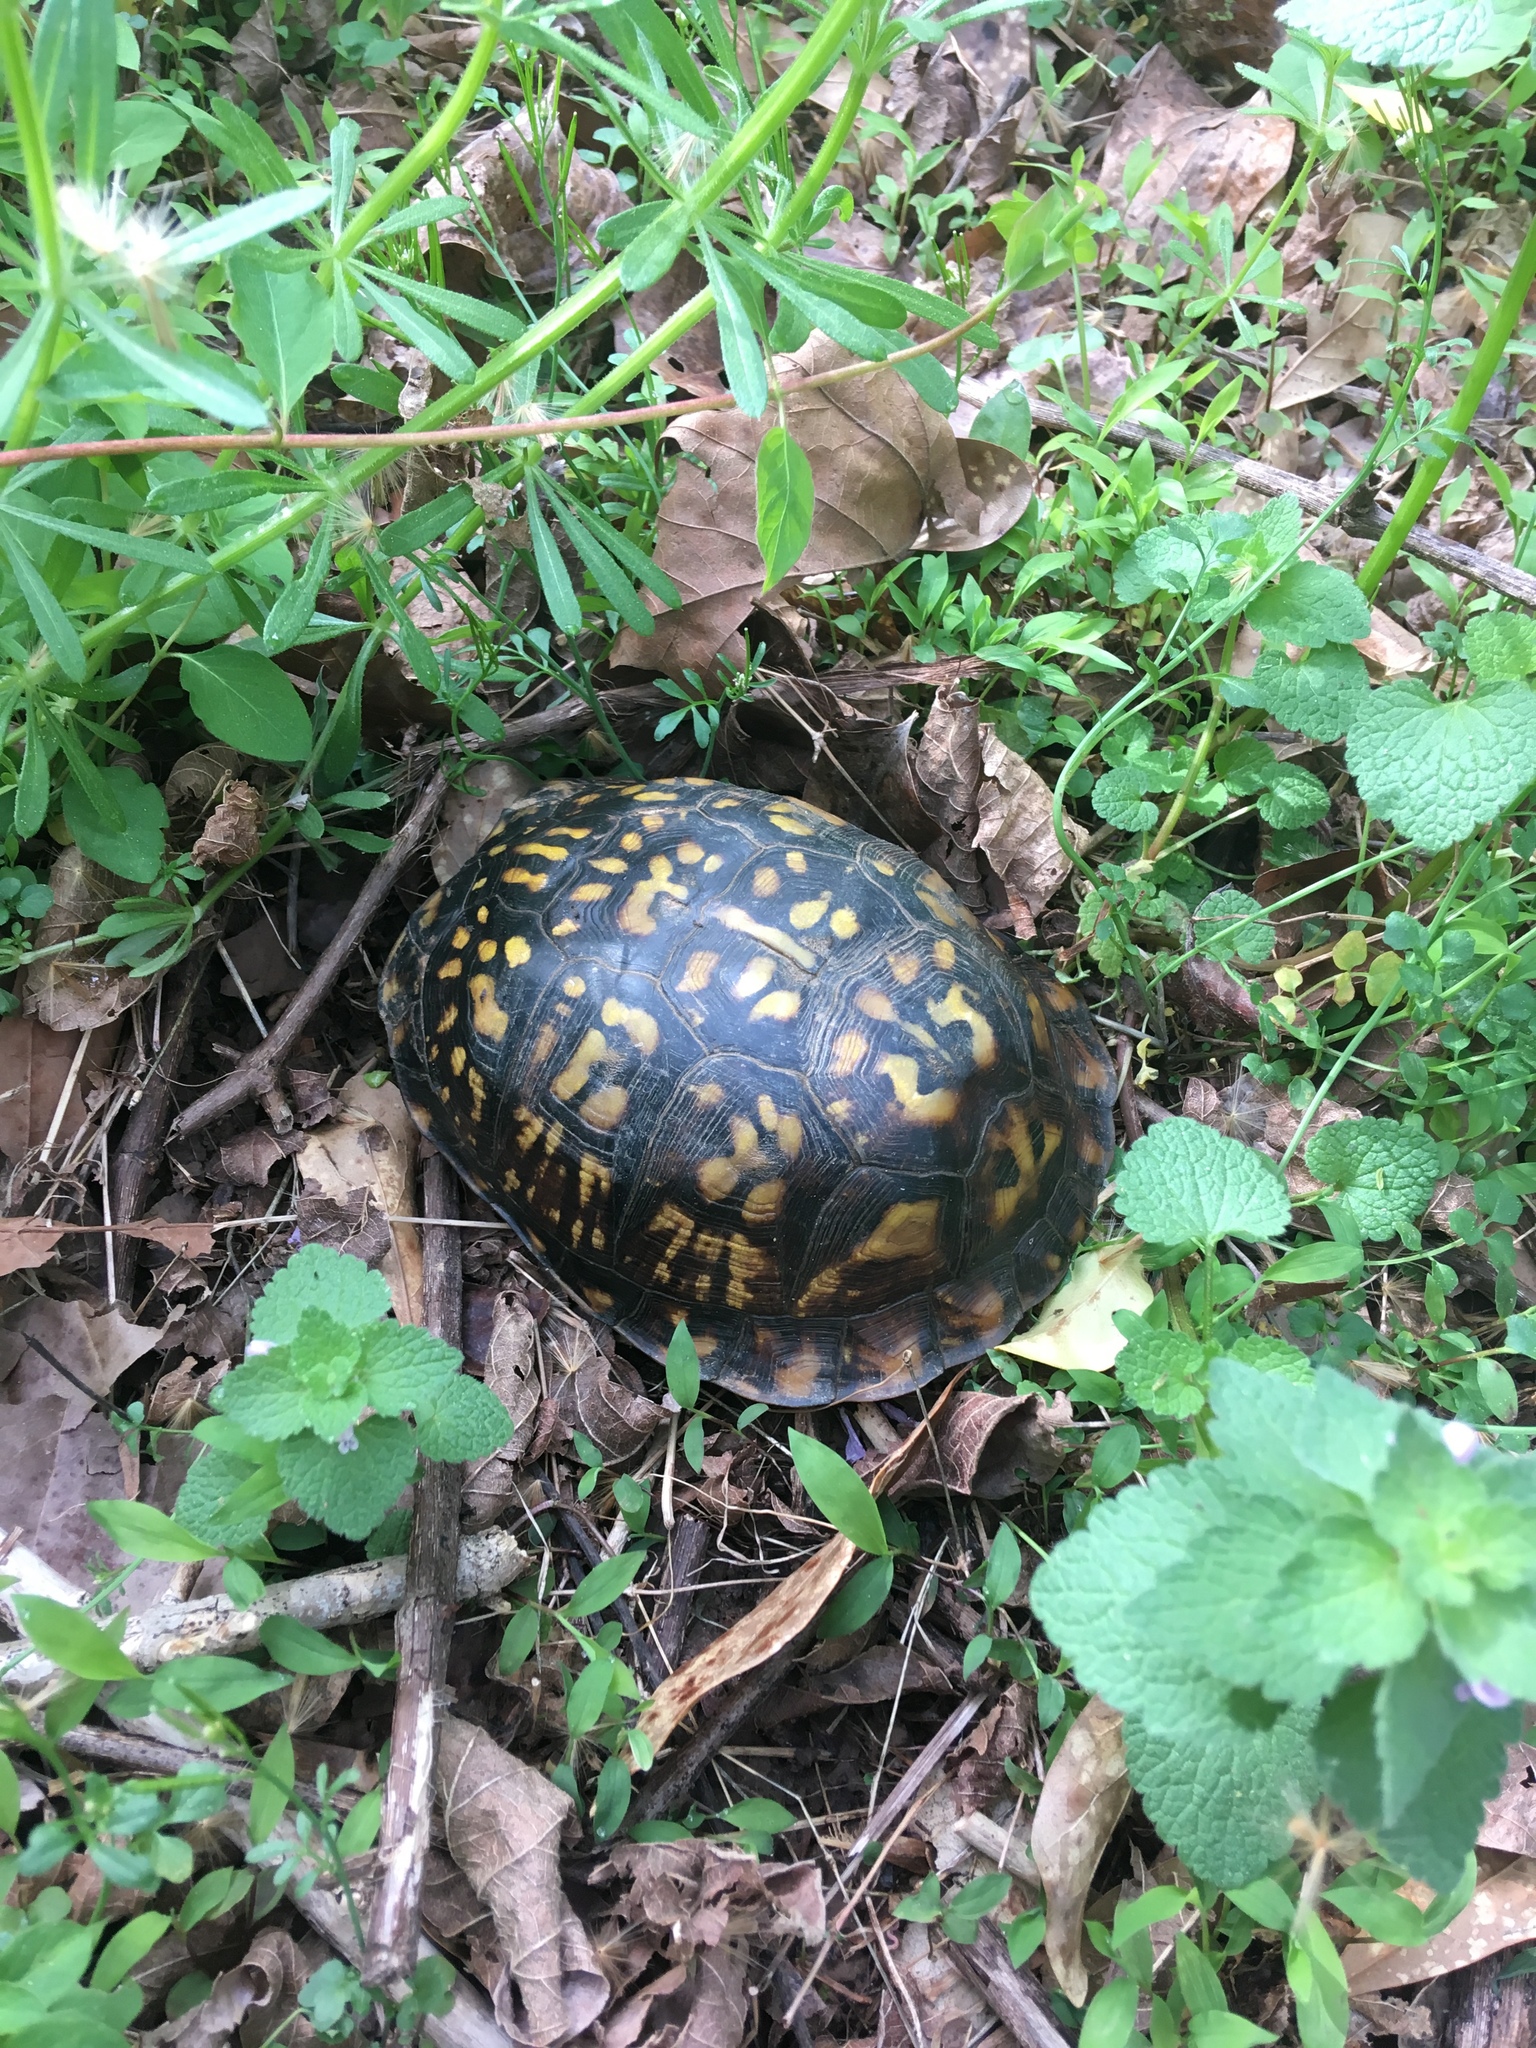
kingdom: Animalia
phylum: Chordata
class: Testudines
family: Emydidae
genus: Terrapene
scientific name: Terrapene carolina
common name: Common box turtle
